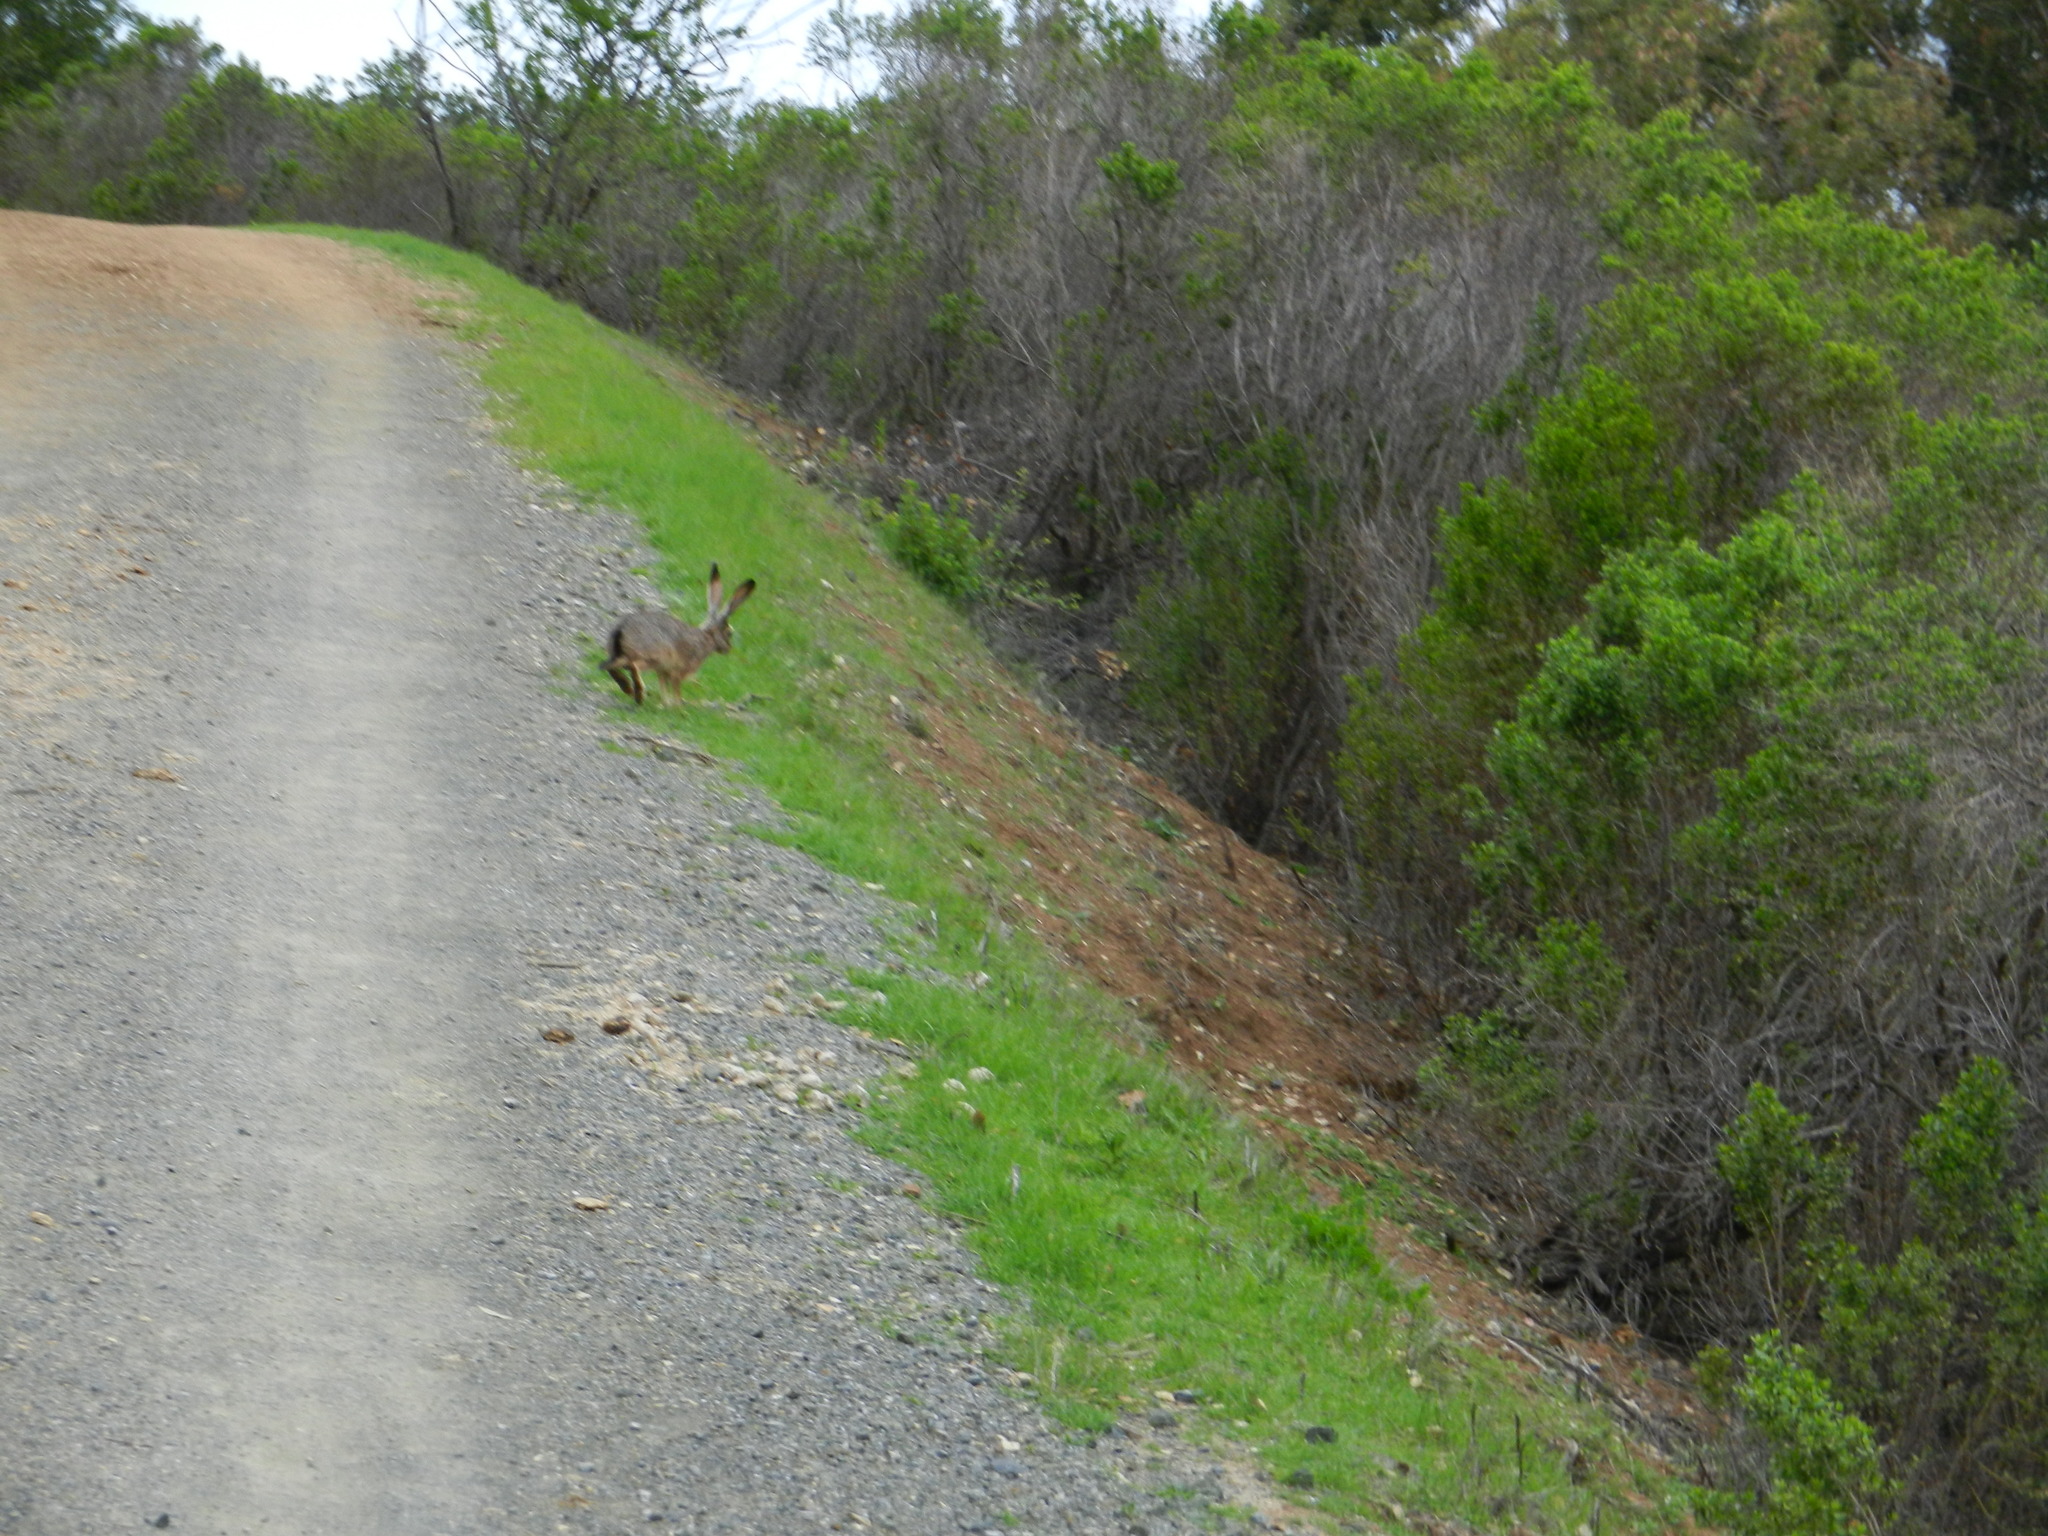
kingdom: Animalia
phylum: Chordata
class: Mammalia
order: Lagomorpha
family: Leporidae
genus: Lepus
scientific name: Lepus californicus
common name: Black-tailed jackrabbit
